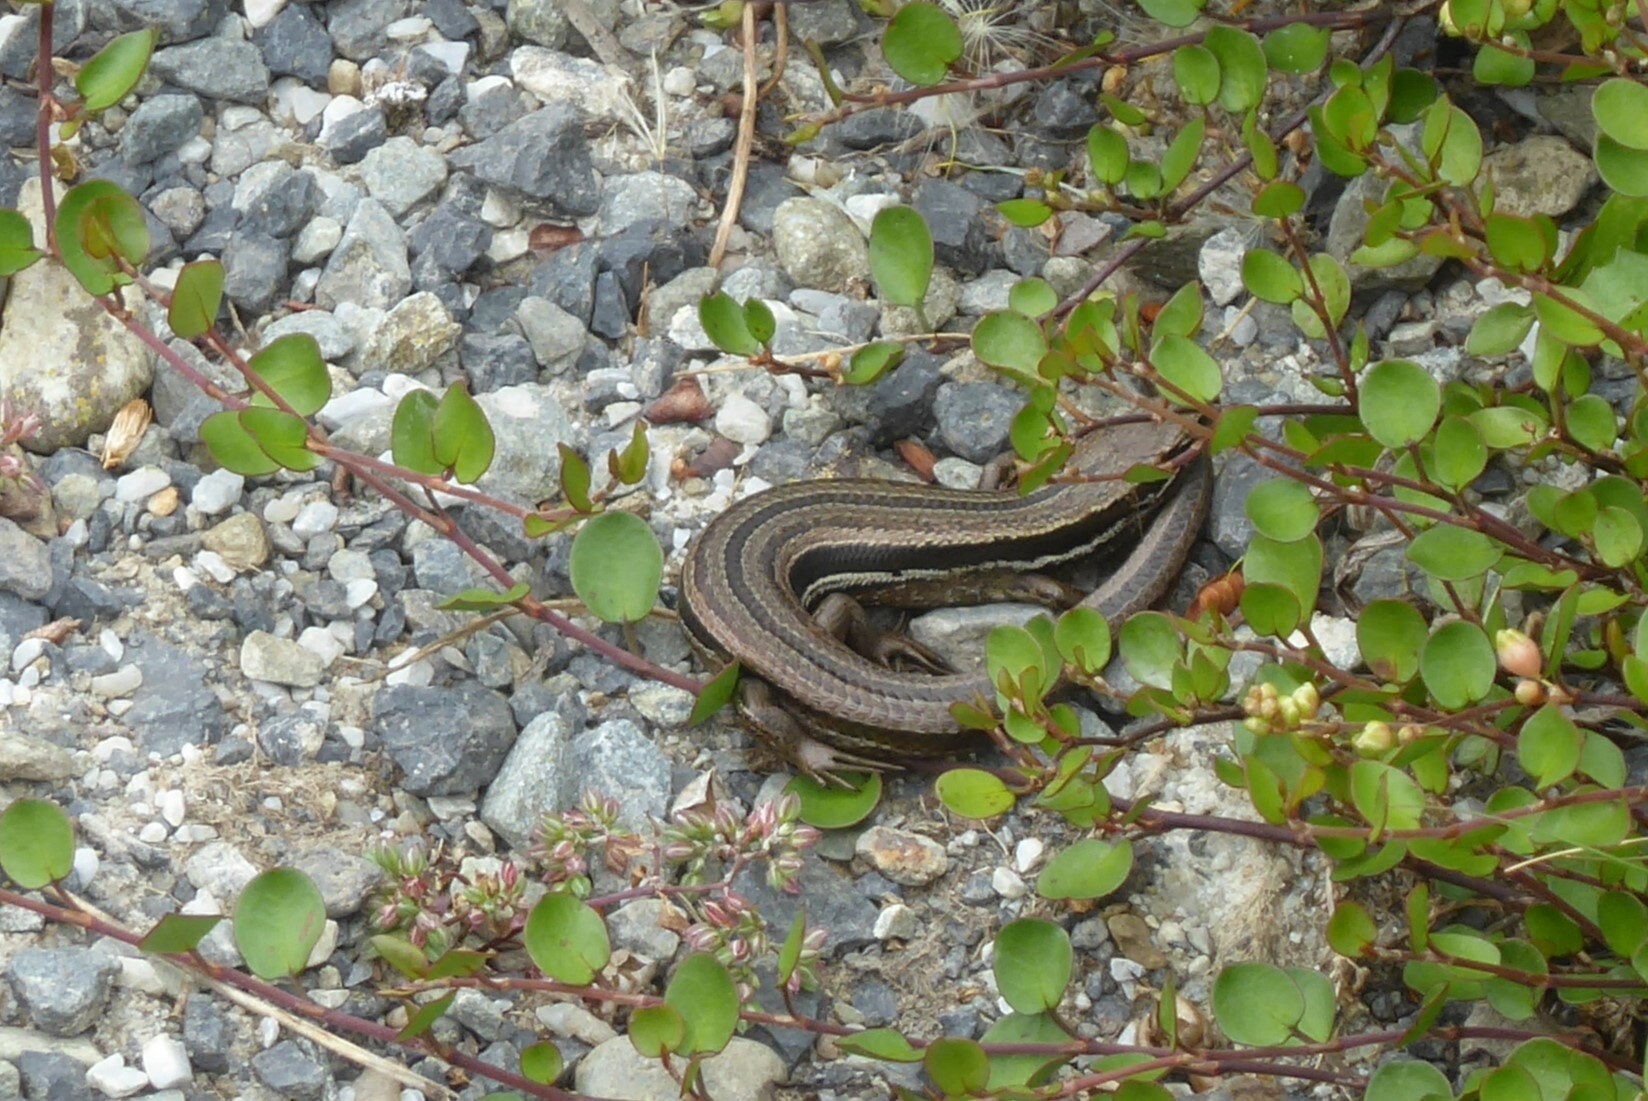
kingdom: Animalia
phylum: Chordata
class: Squamata
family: Scincidae
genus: Oligosoma
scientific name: Oligosoma polychroma
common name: Common new zealand skink
